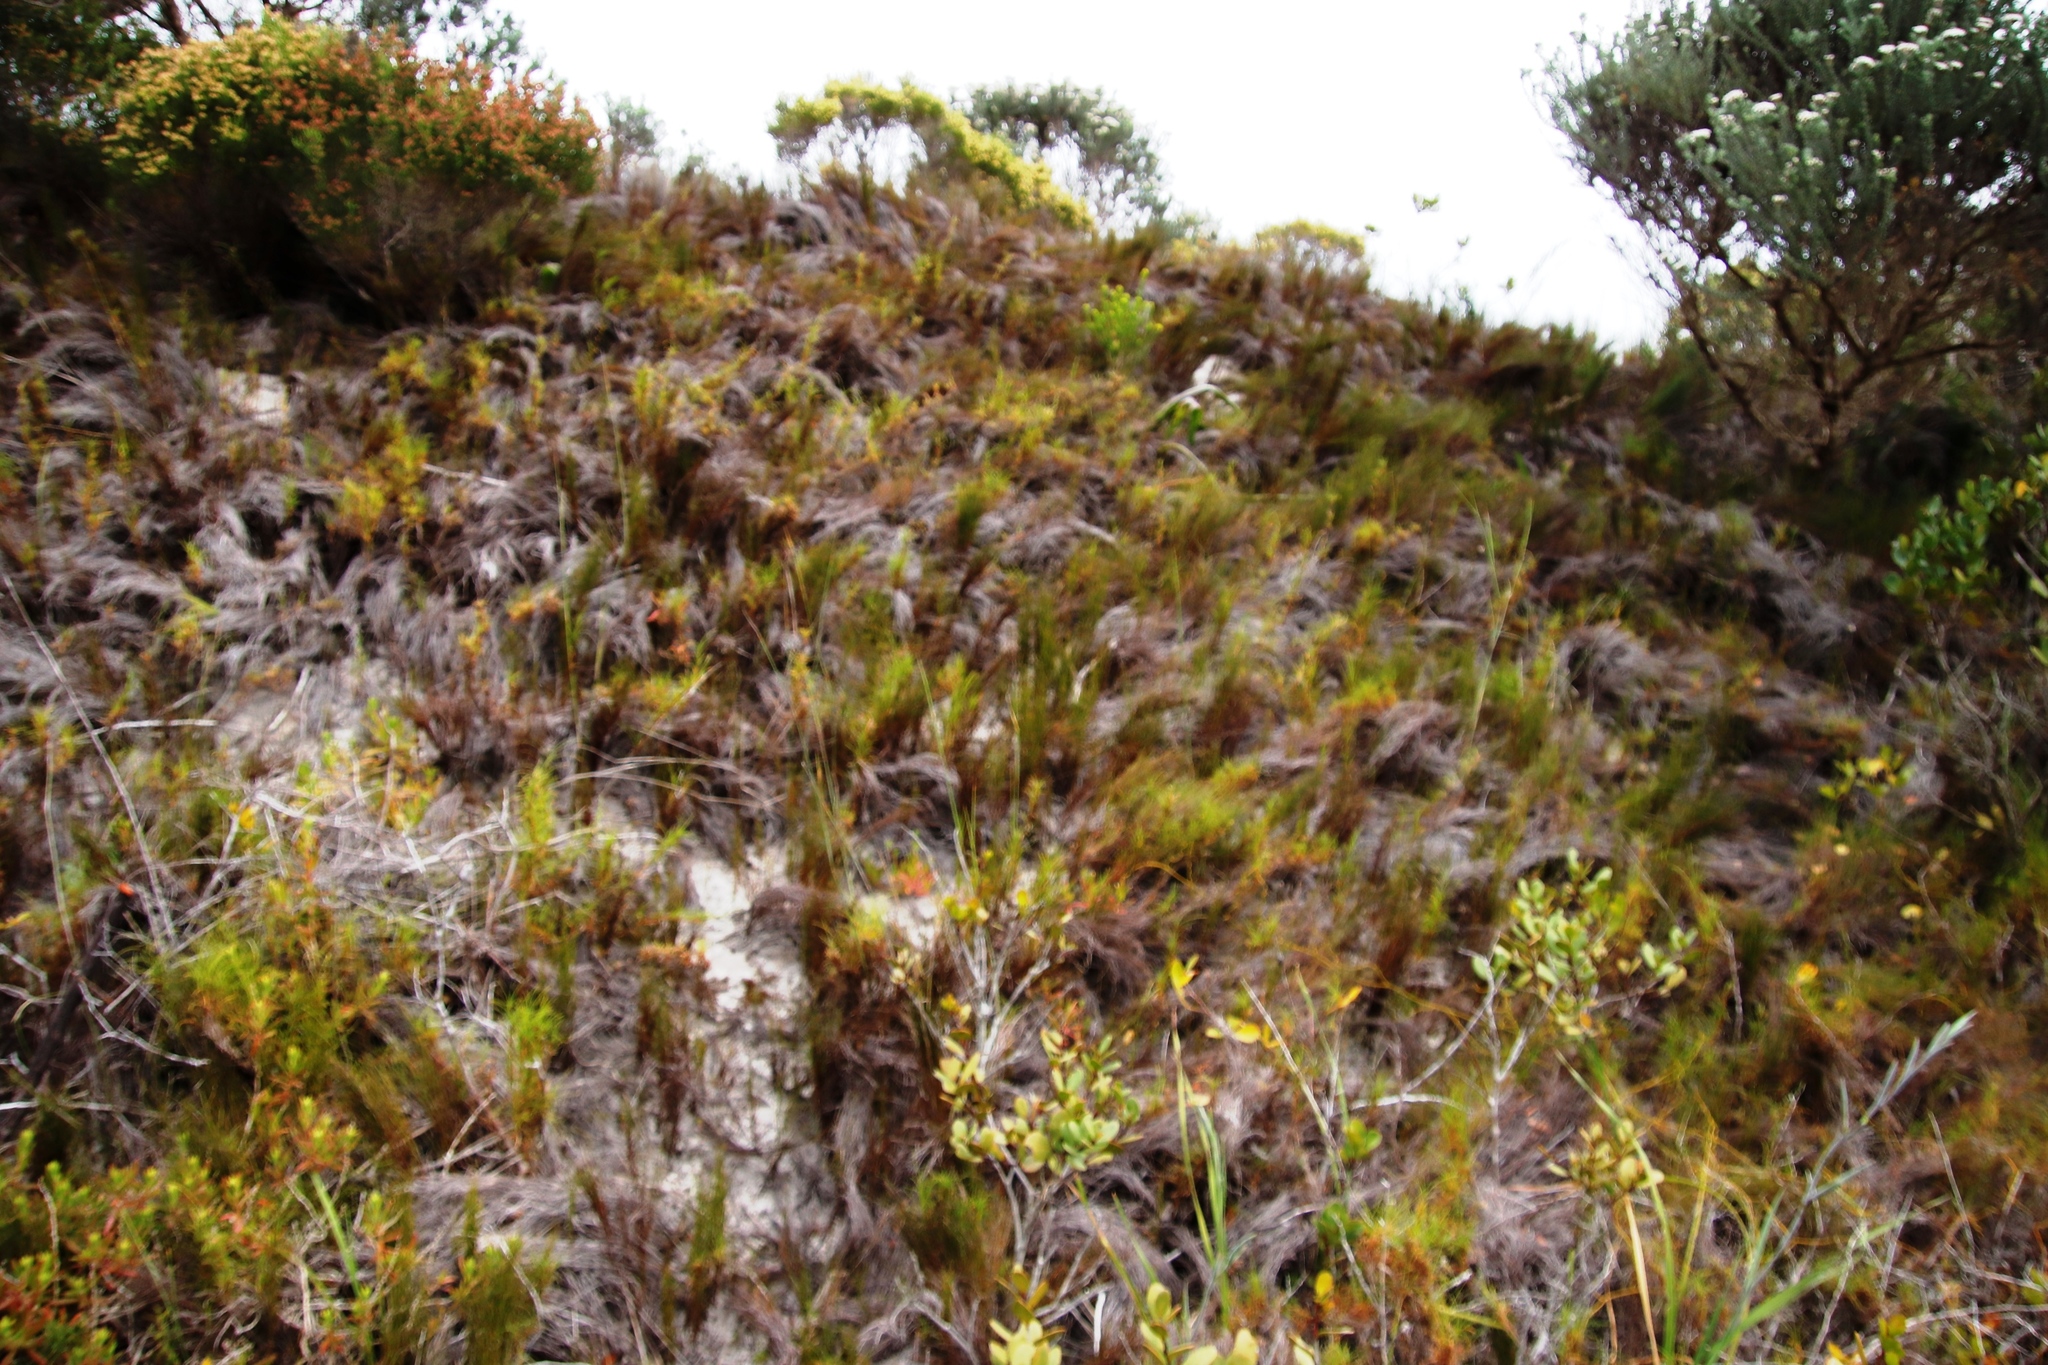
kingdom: Plantae
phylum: Tracheophyta
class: Liliopsida
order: Poales
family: Restionaceae
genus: Elegia
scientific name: Elegia microcarpa
